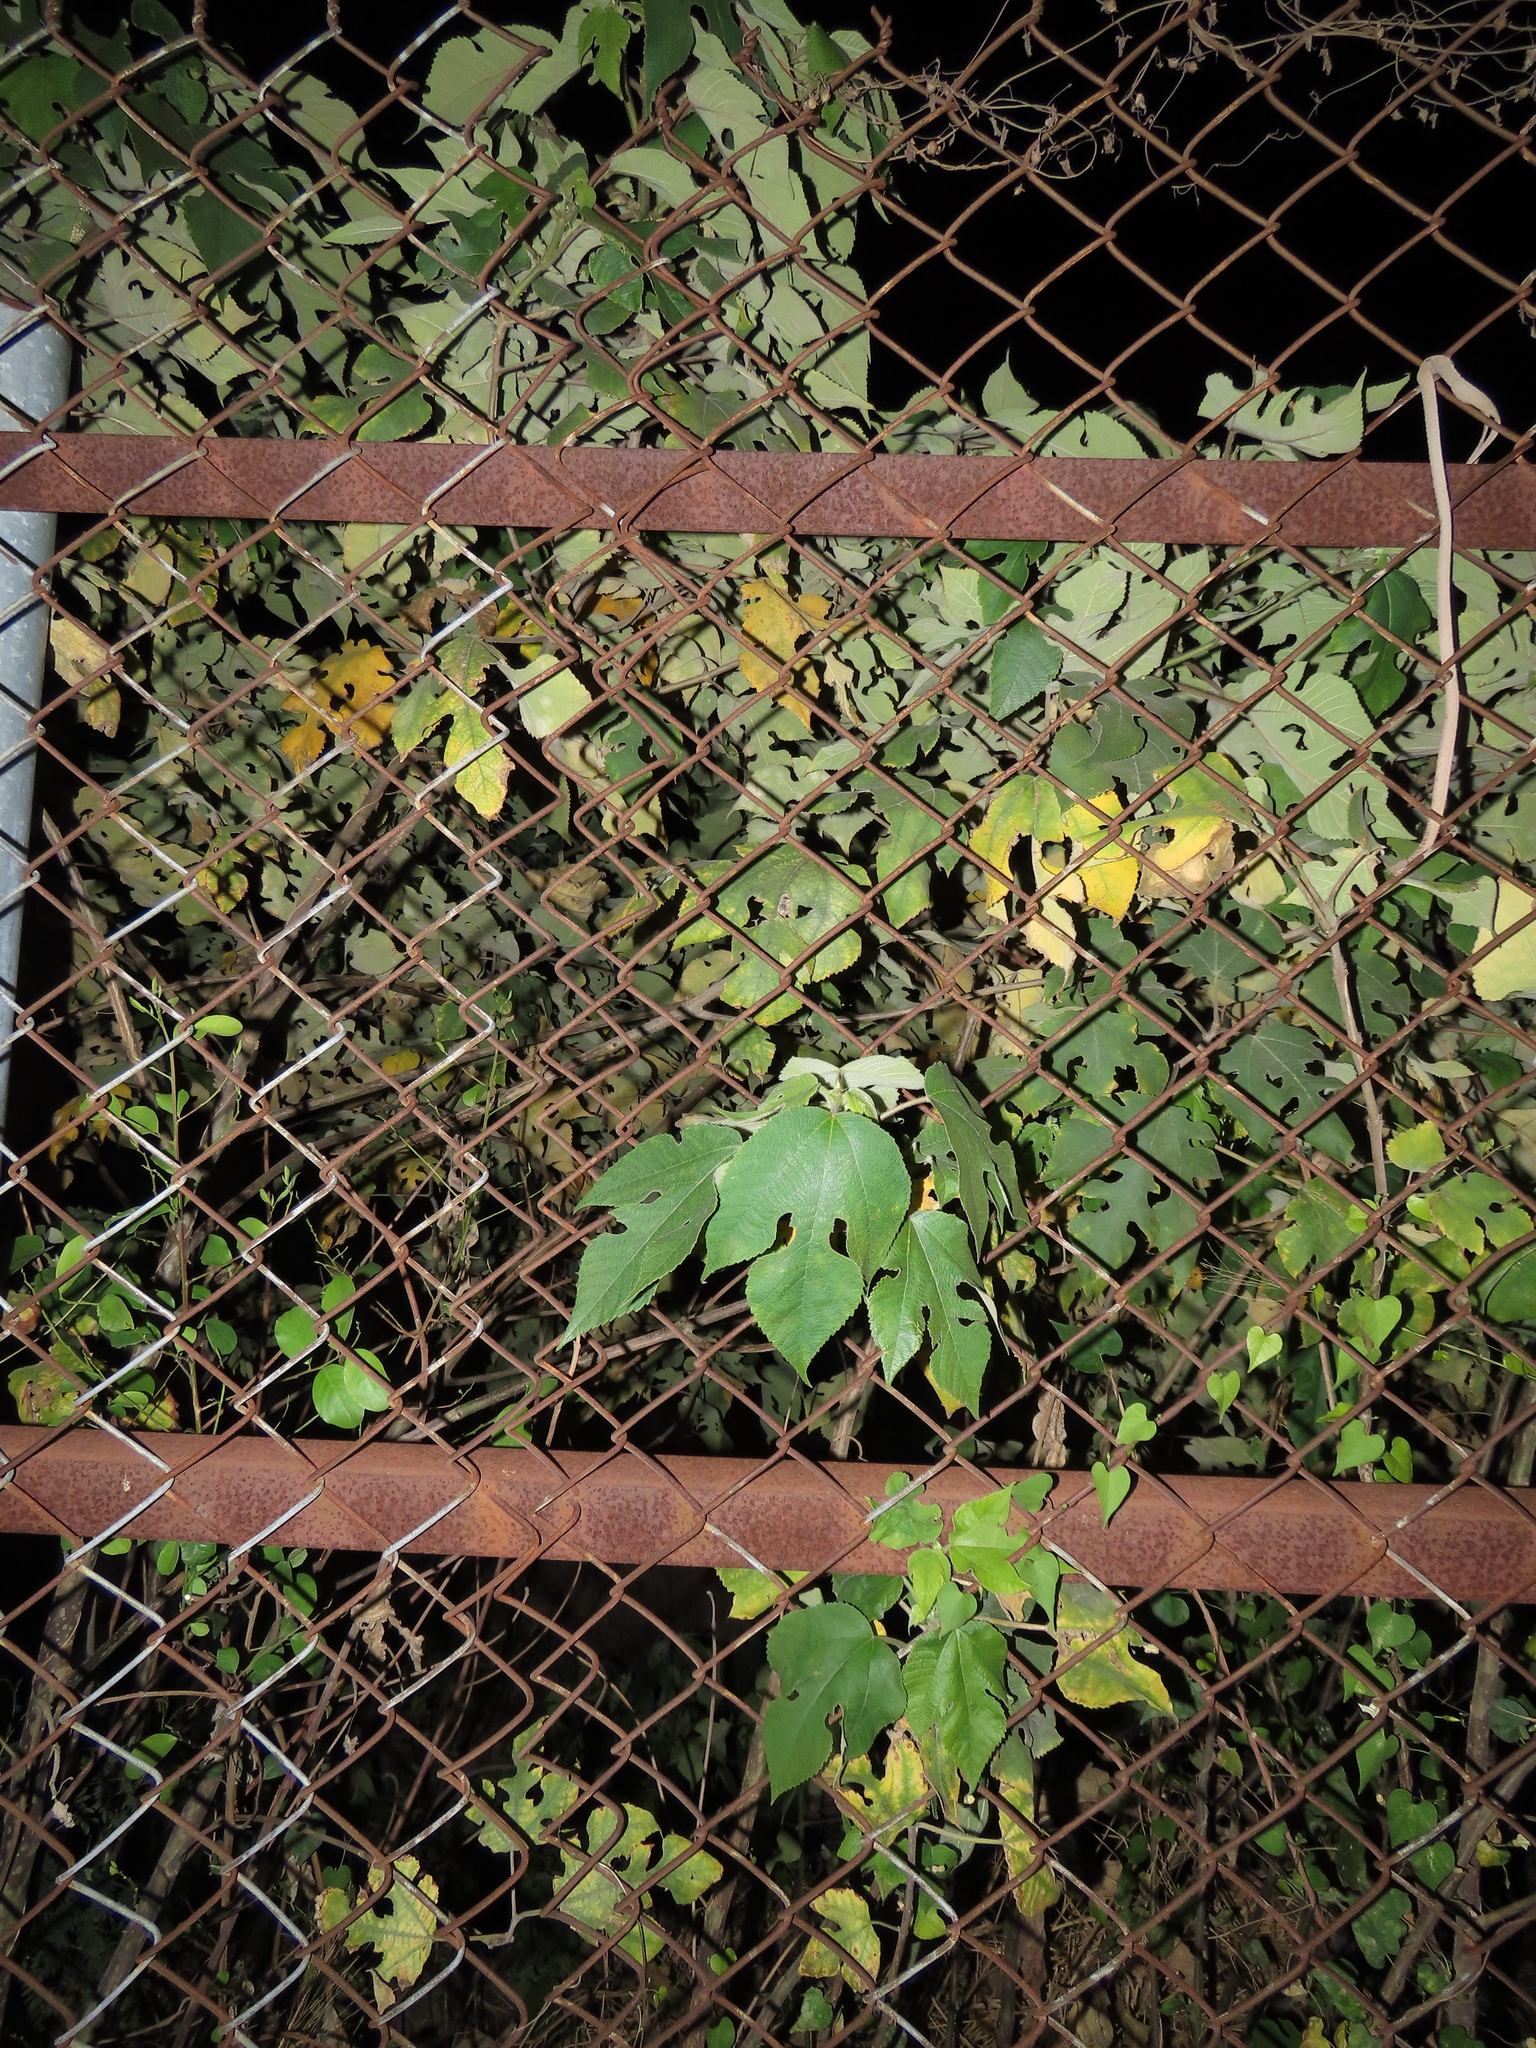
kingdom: Plantae
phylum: Tracheophyta
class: Magnoliopsida
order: Rosales
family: Moraceae
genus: Broussonetia
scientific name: Broussonetia papyrifera
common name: Paper mulberry
